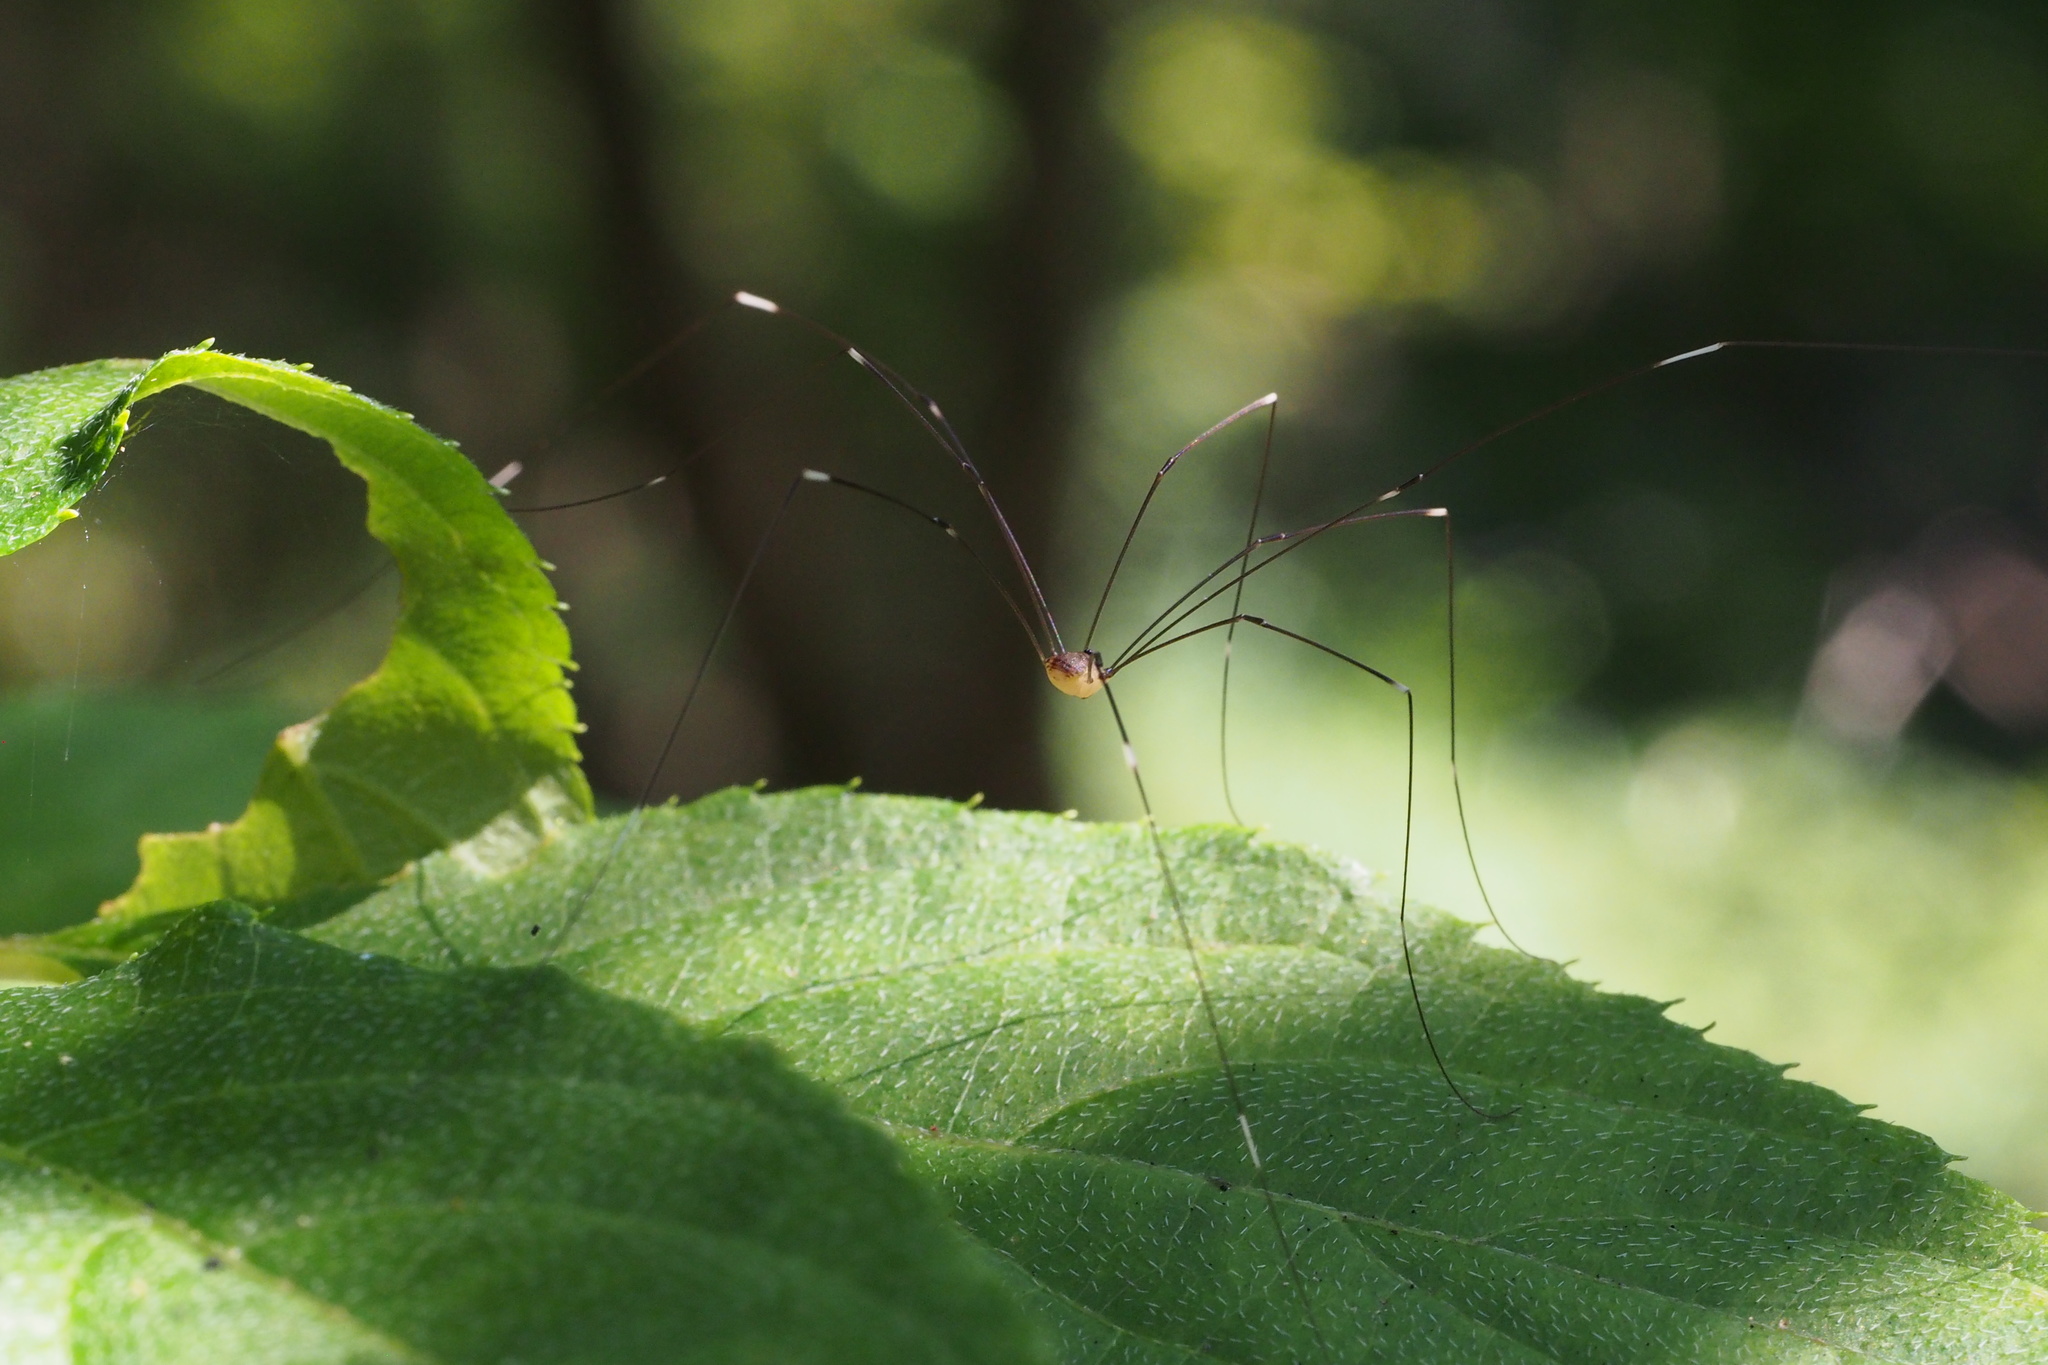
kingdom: Animalia
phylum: Arthropoda
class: Arachnida
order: Opiliones
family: Sclerosomatidae
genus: Leiobunum
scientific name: Leiobunum japonicum
